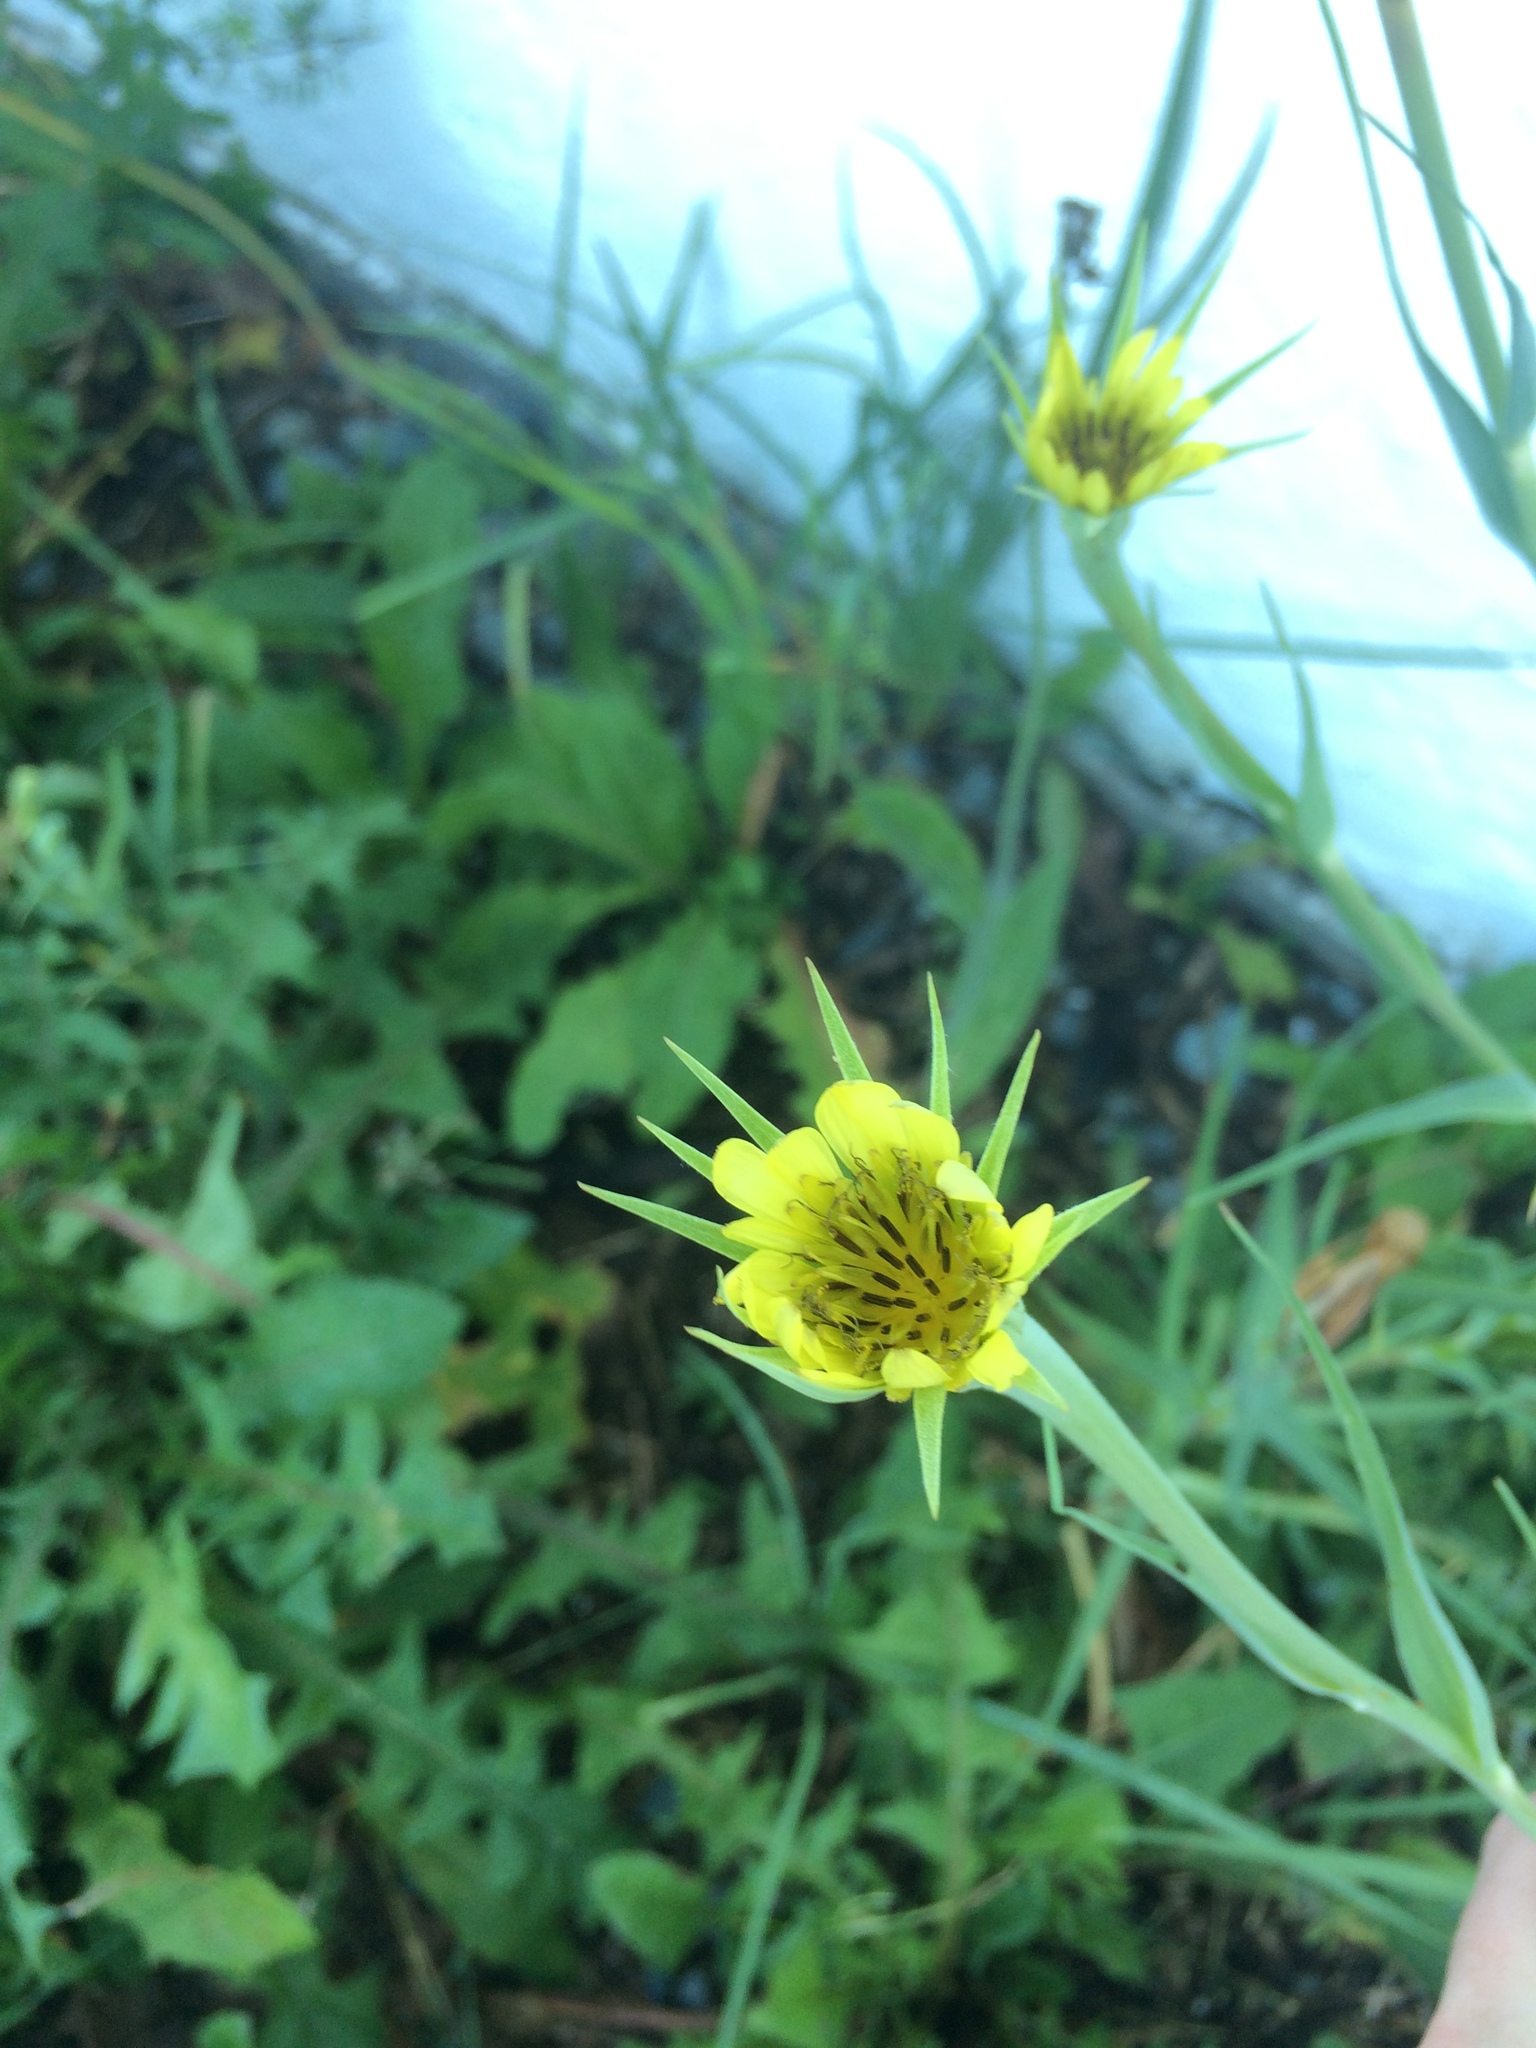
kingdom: Plantae
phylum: Tracheophyta
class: Magnoliopsida
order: Asterales
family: Asteraceae
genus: Tragopogon
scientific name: Tragopogon dubius
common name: Yellow salsify
